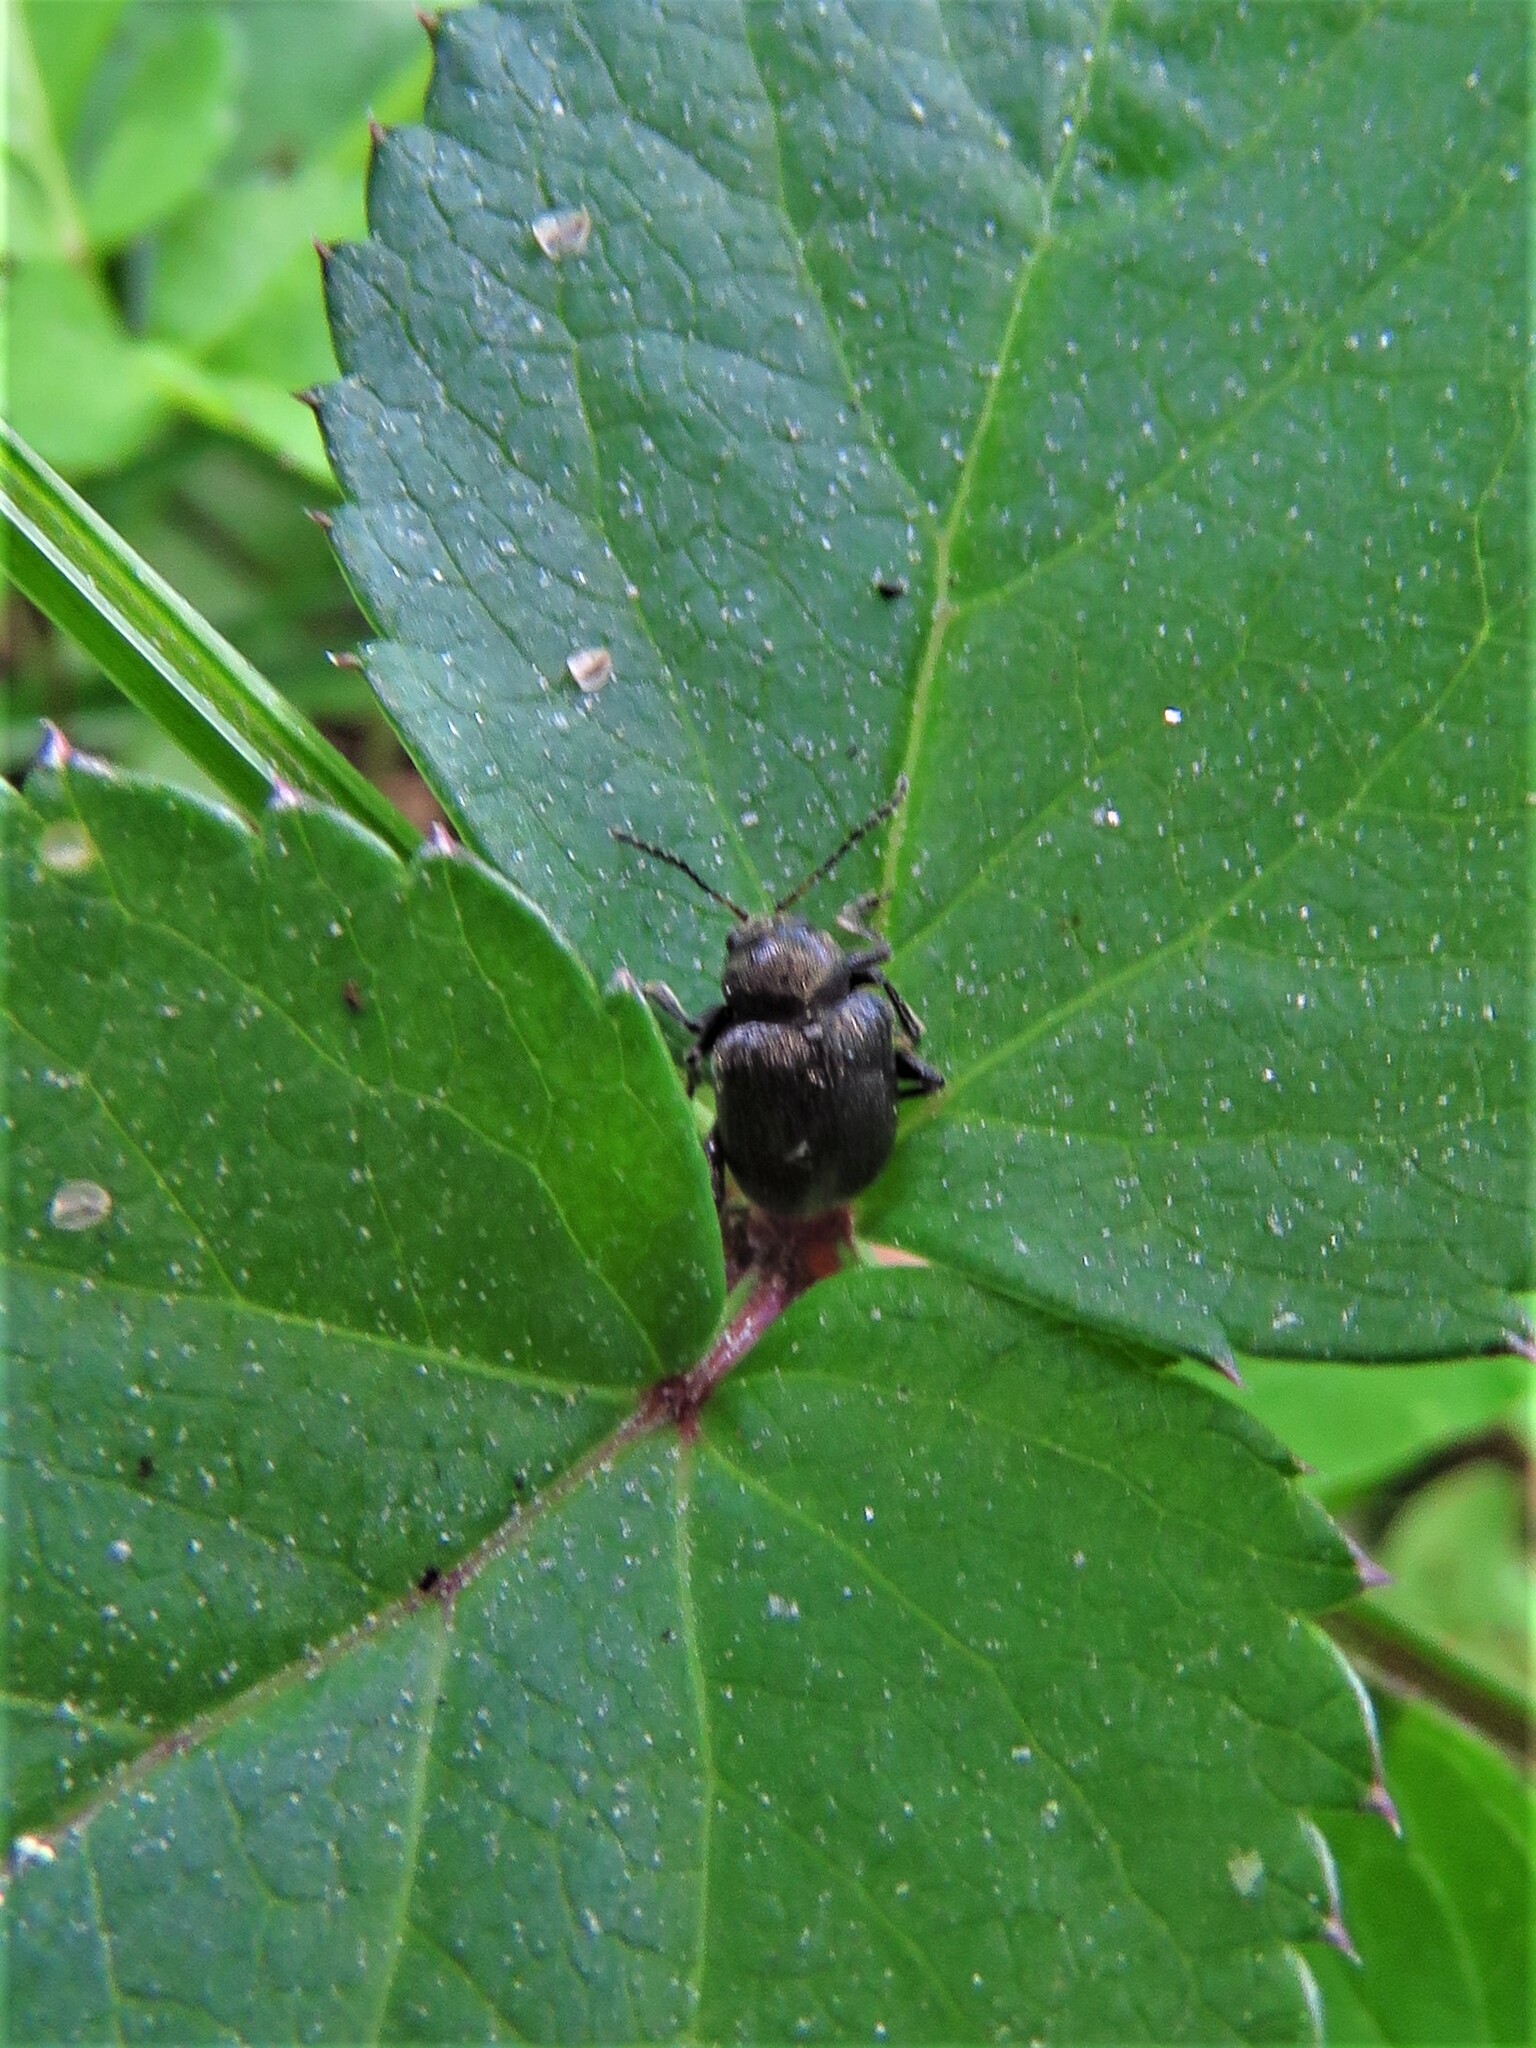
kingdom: Animalia
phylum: Arthropoda
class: Insecta
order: Coleoptera
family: Chrysomelidae
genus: Bromius
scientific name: Bromius obscurus
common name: Western grape rootworm
